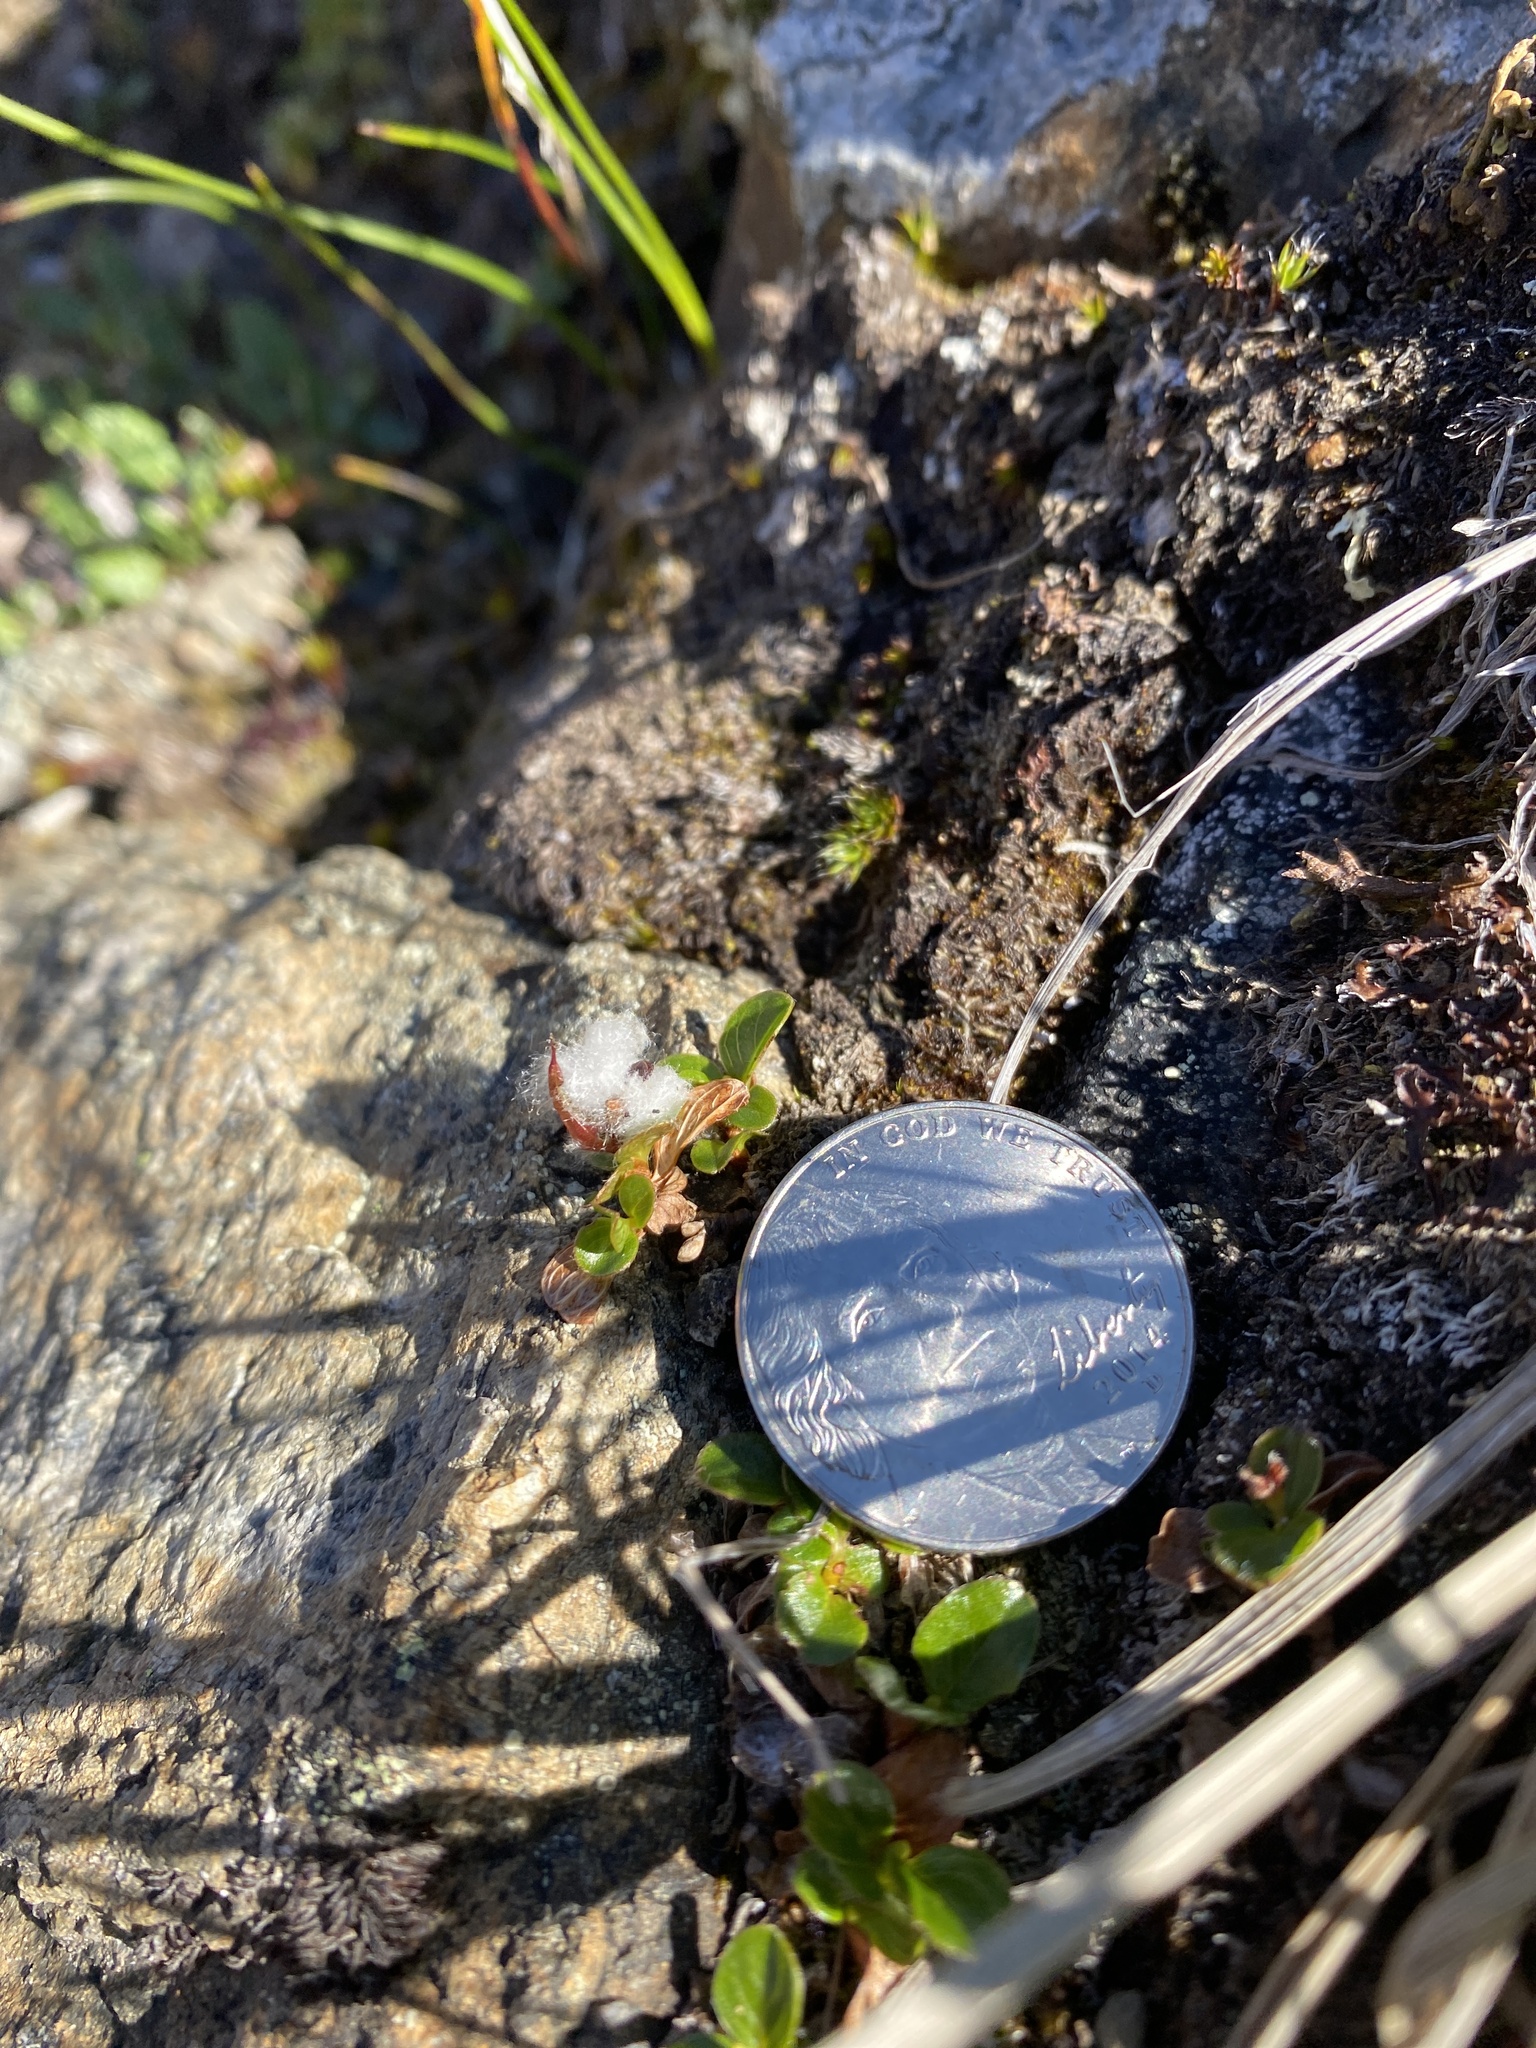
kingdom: Plantae
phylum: Tracheophyta
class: Magnoliopsida
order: Malpighiales
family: Salicaceae
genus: Salix
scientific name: Salix rotundifolia
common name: Least willow
